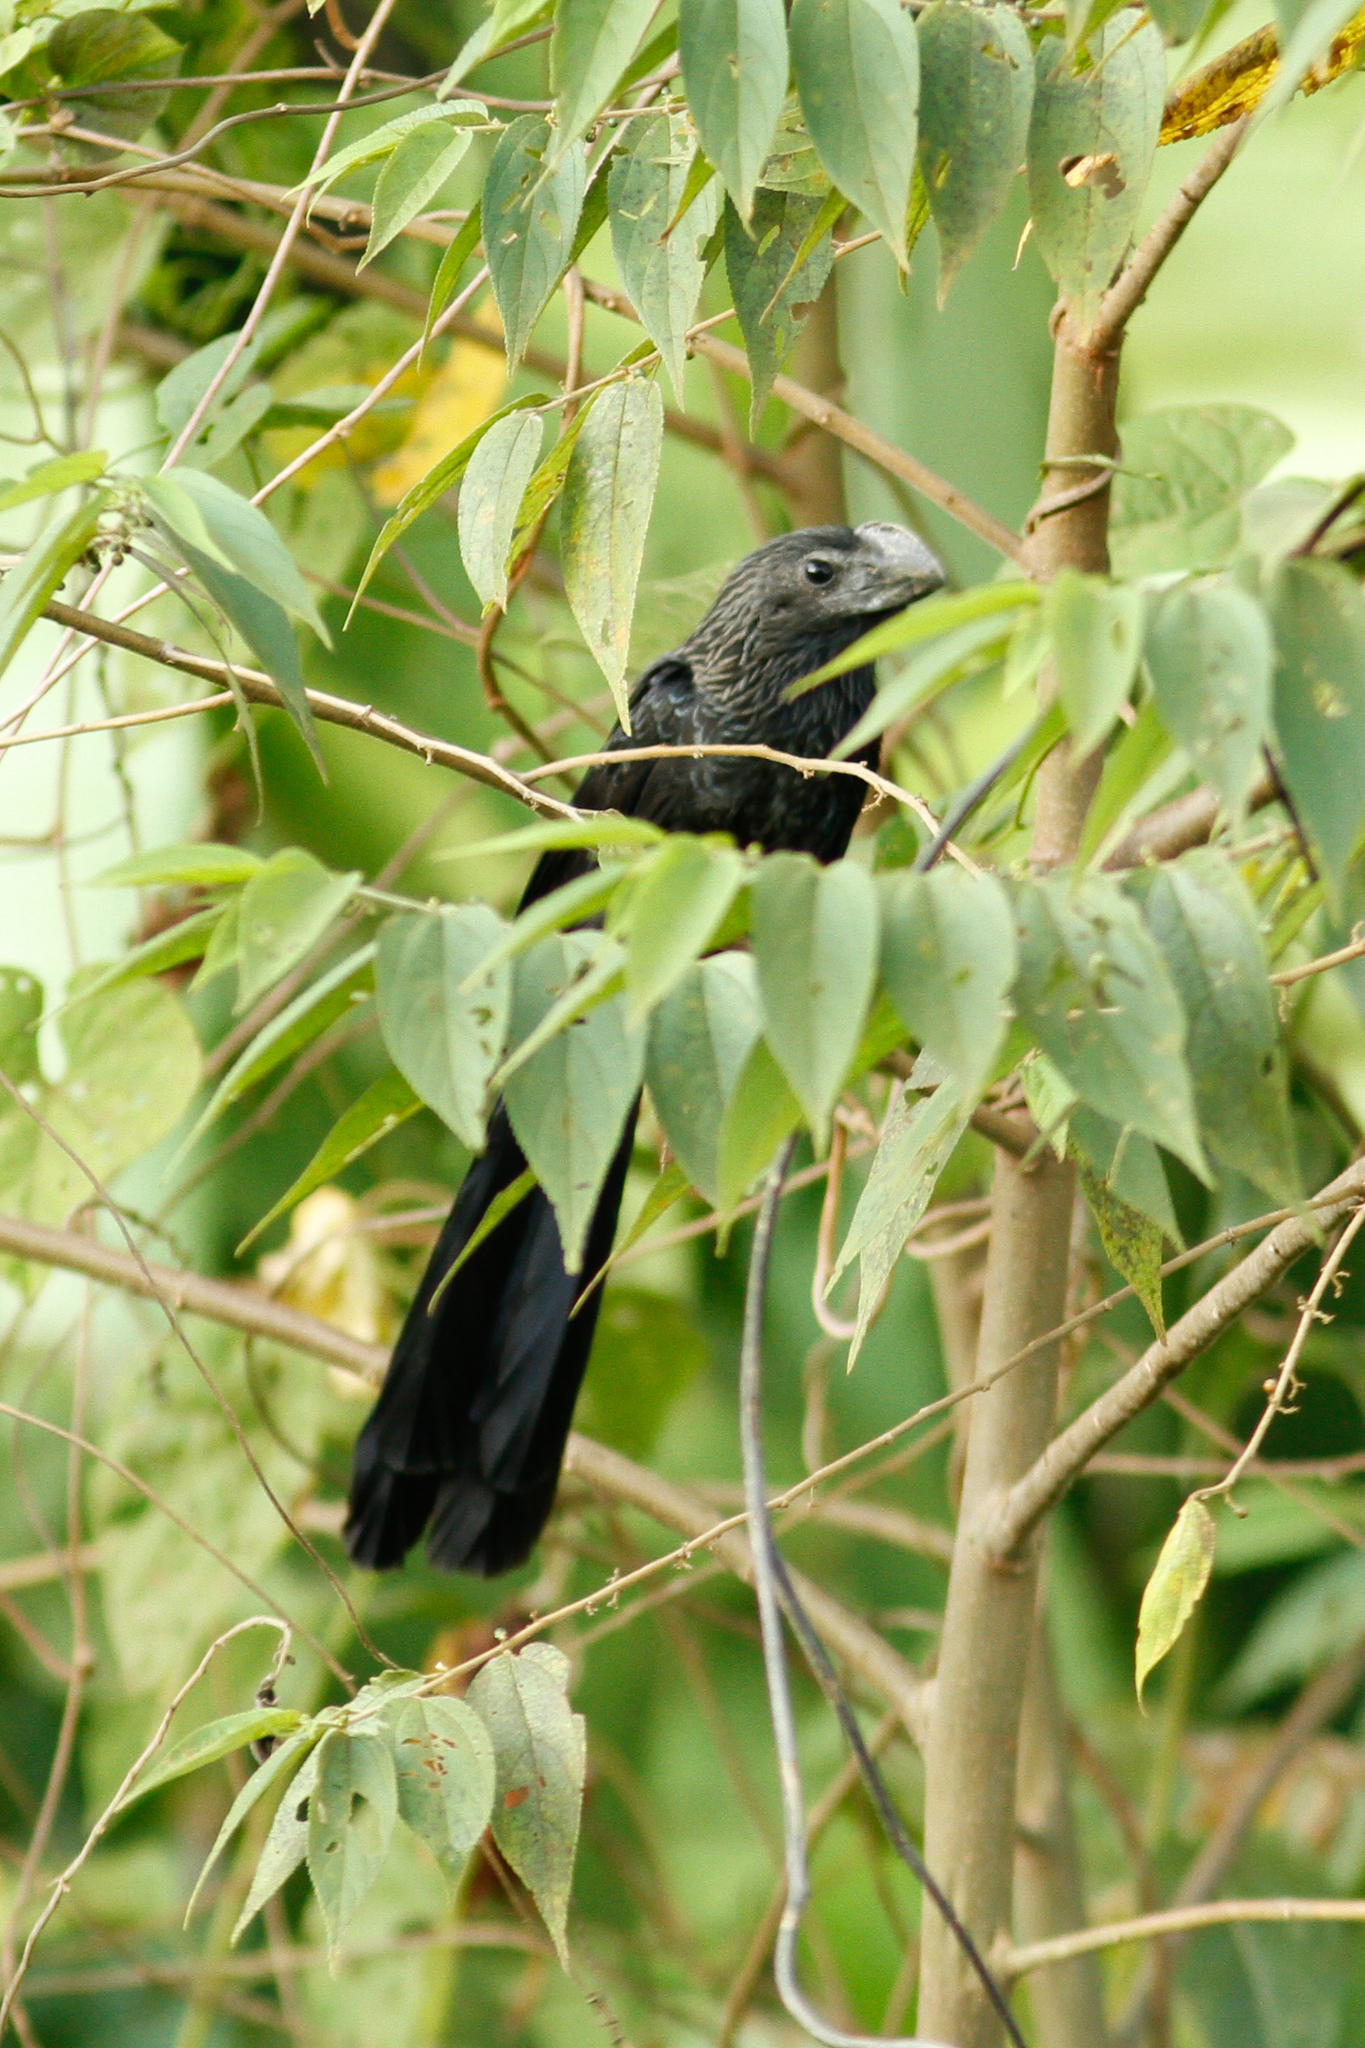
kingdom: Animalia
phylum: Chordata
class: Aves
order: Cuculiformes
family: Cuculidae
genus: Crotophaga
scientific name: Crotophaga ani
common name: Smooth-billed ani
